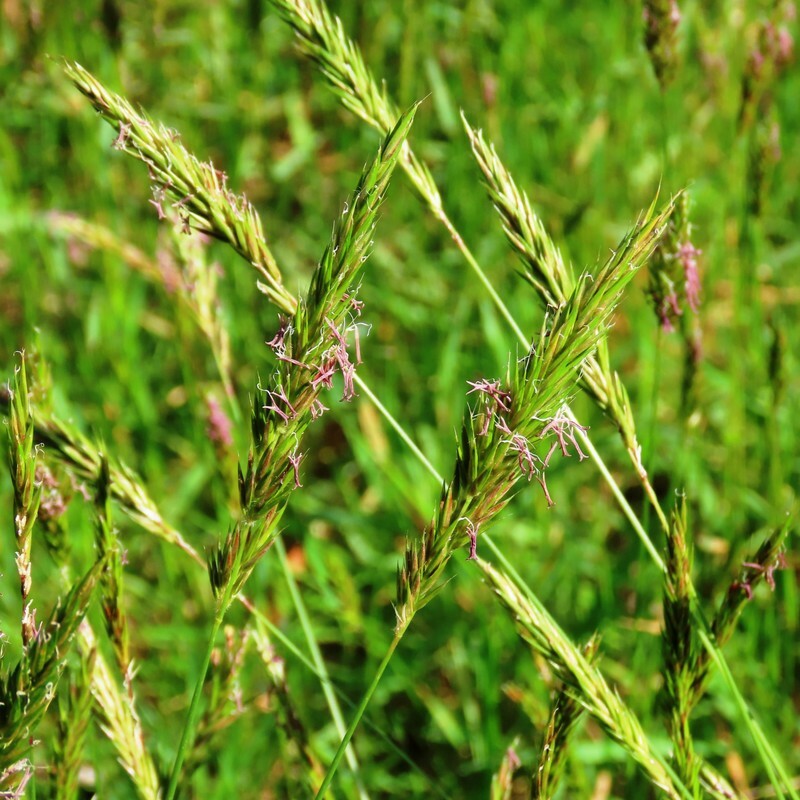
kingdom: Plantae
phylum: Tracheophyta
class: Liliopsida
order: Poales
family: Poaceae
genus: Anthoxanthum
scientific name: Anthoxanthum odoratum
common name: Sweet vernalgrass
